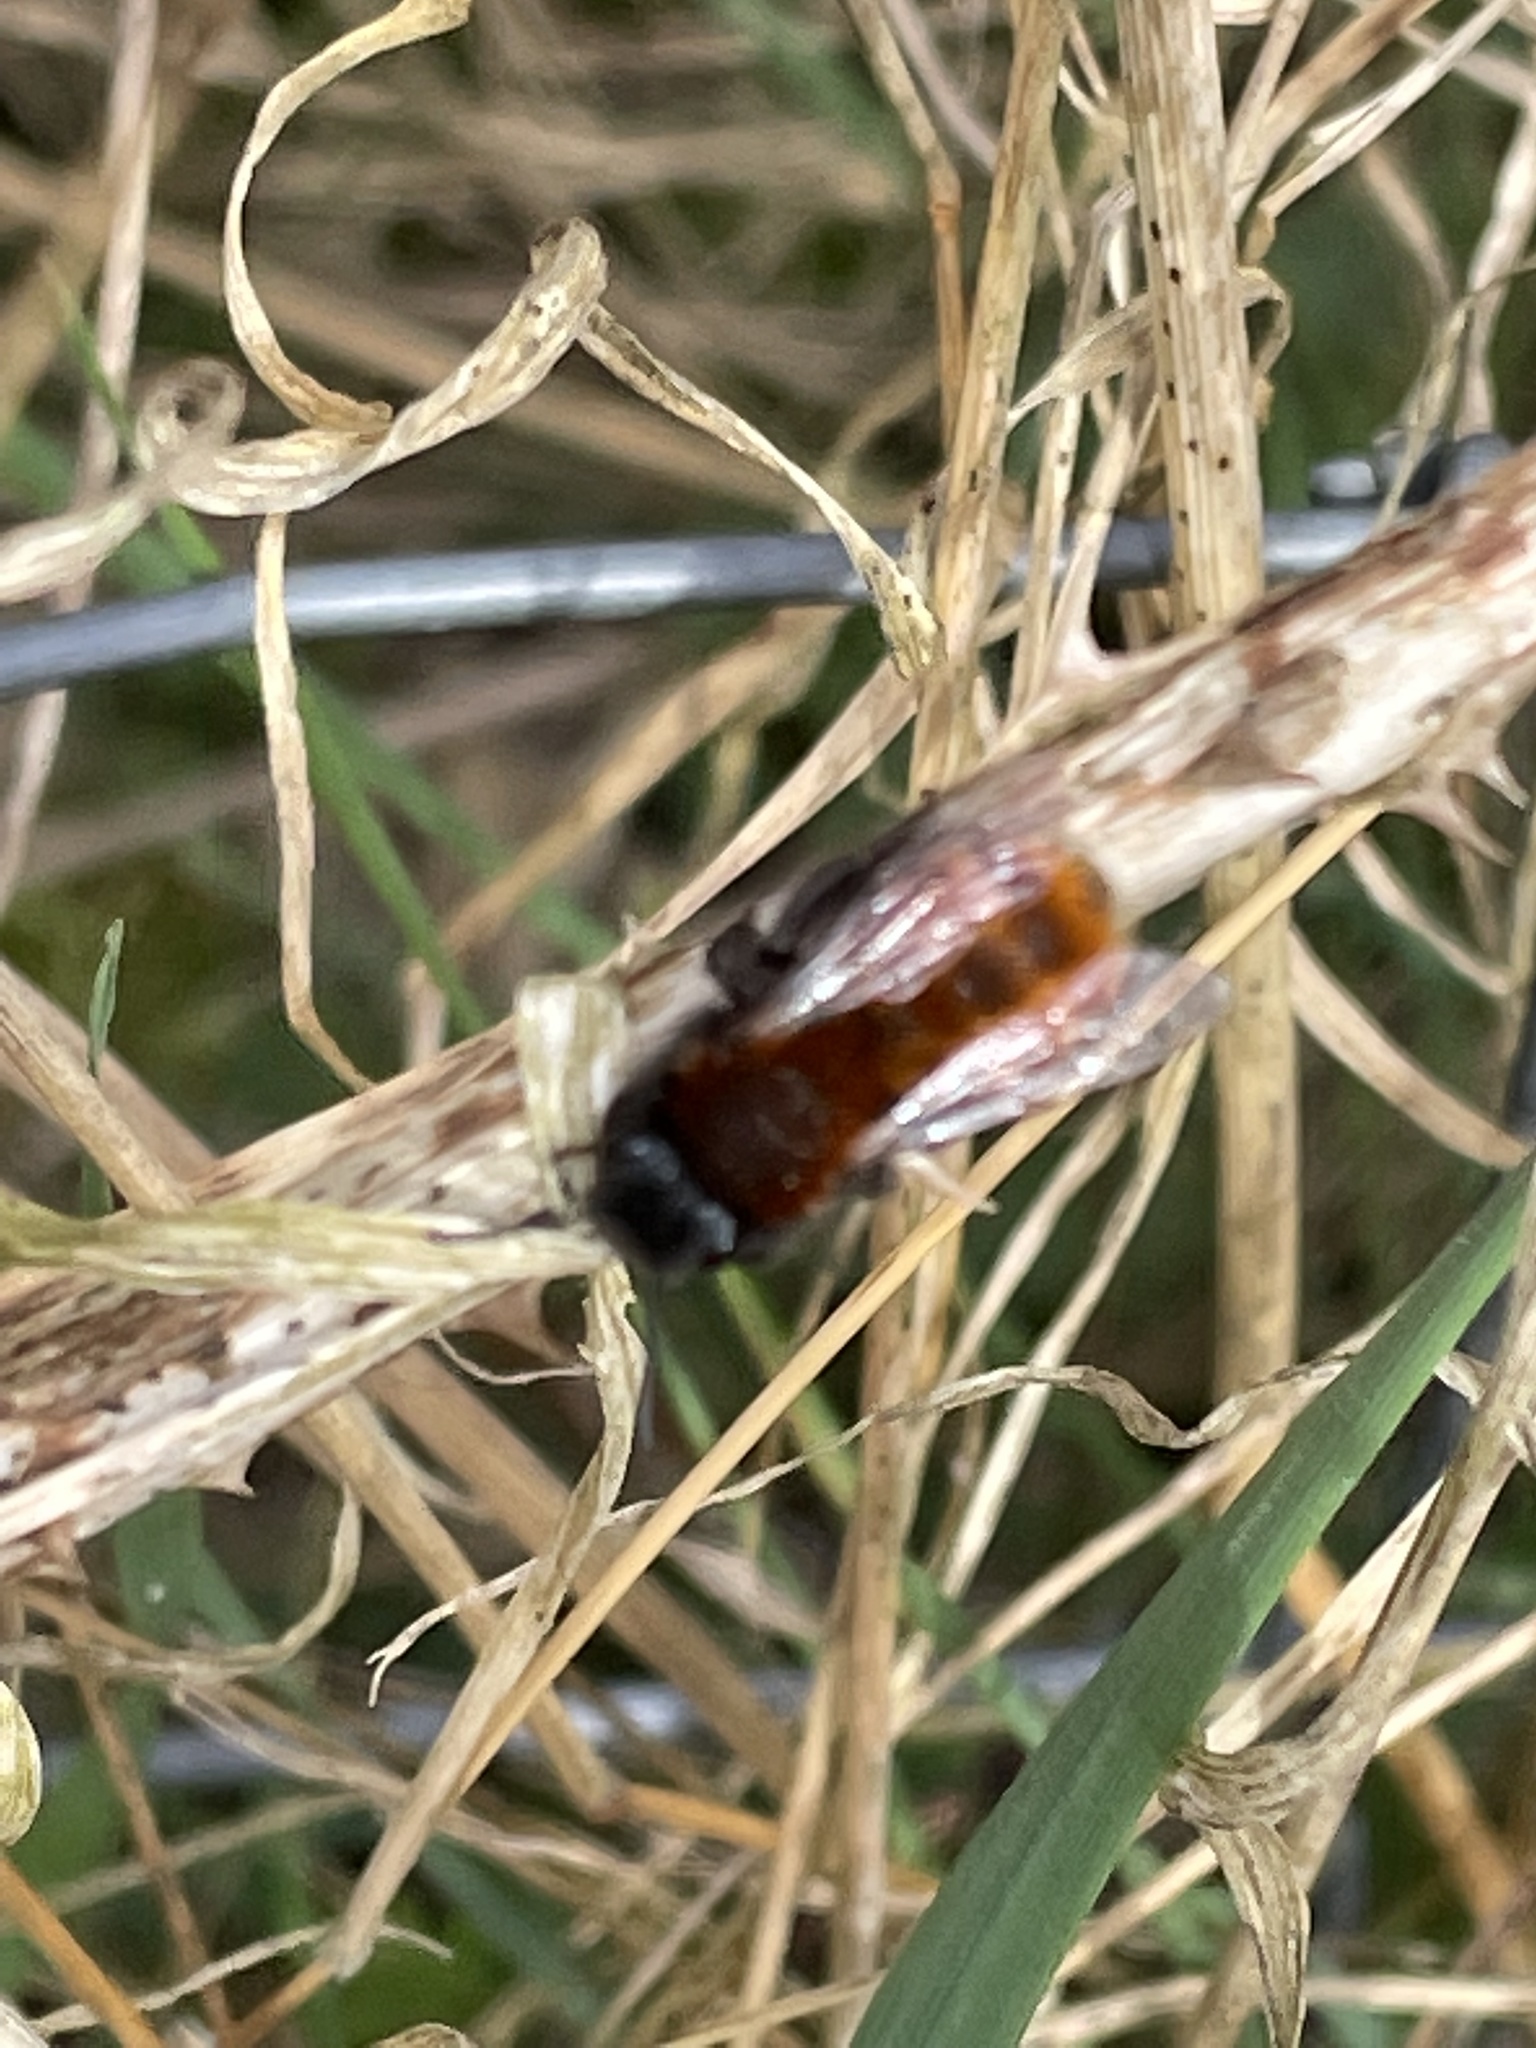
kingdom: Animalia
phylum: Arthropoda
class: Insecta
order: Hymenoptera
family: Andrenidae
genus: Andrena
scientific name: Andrena fulva
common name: Tawny mining bee
